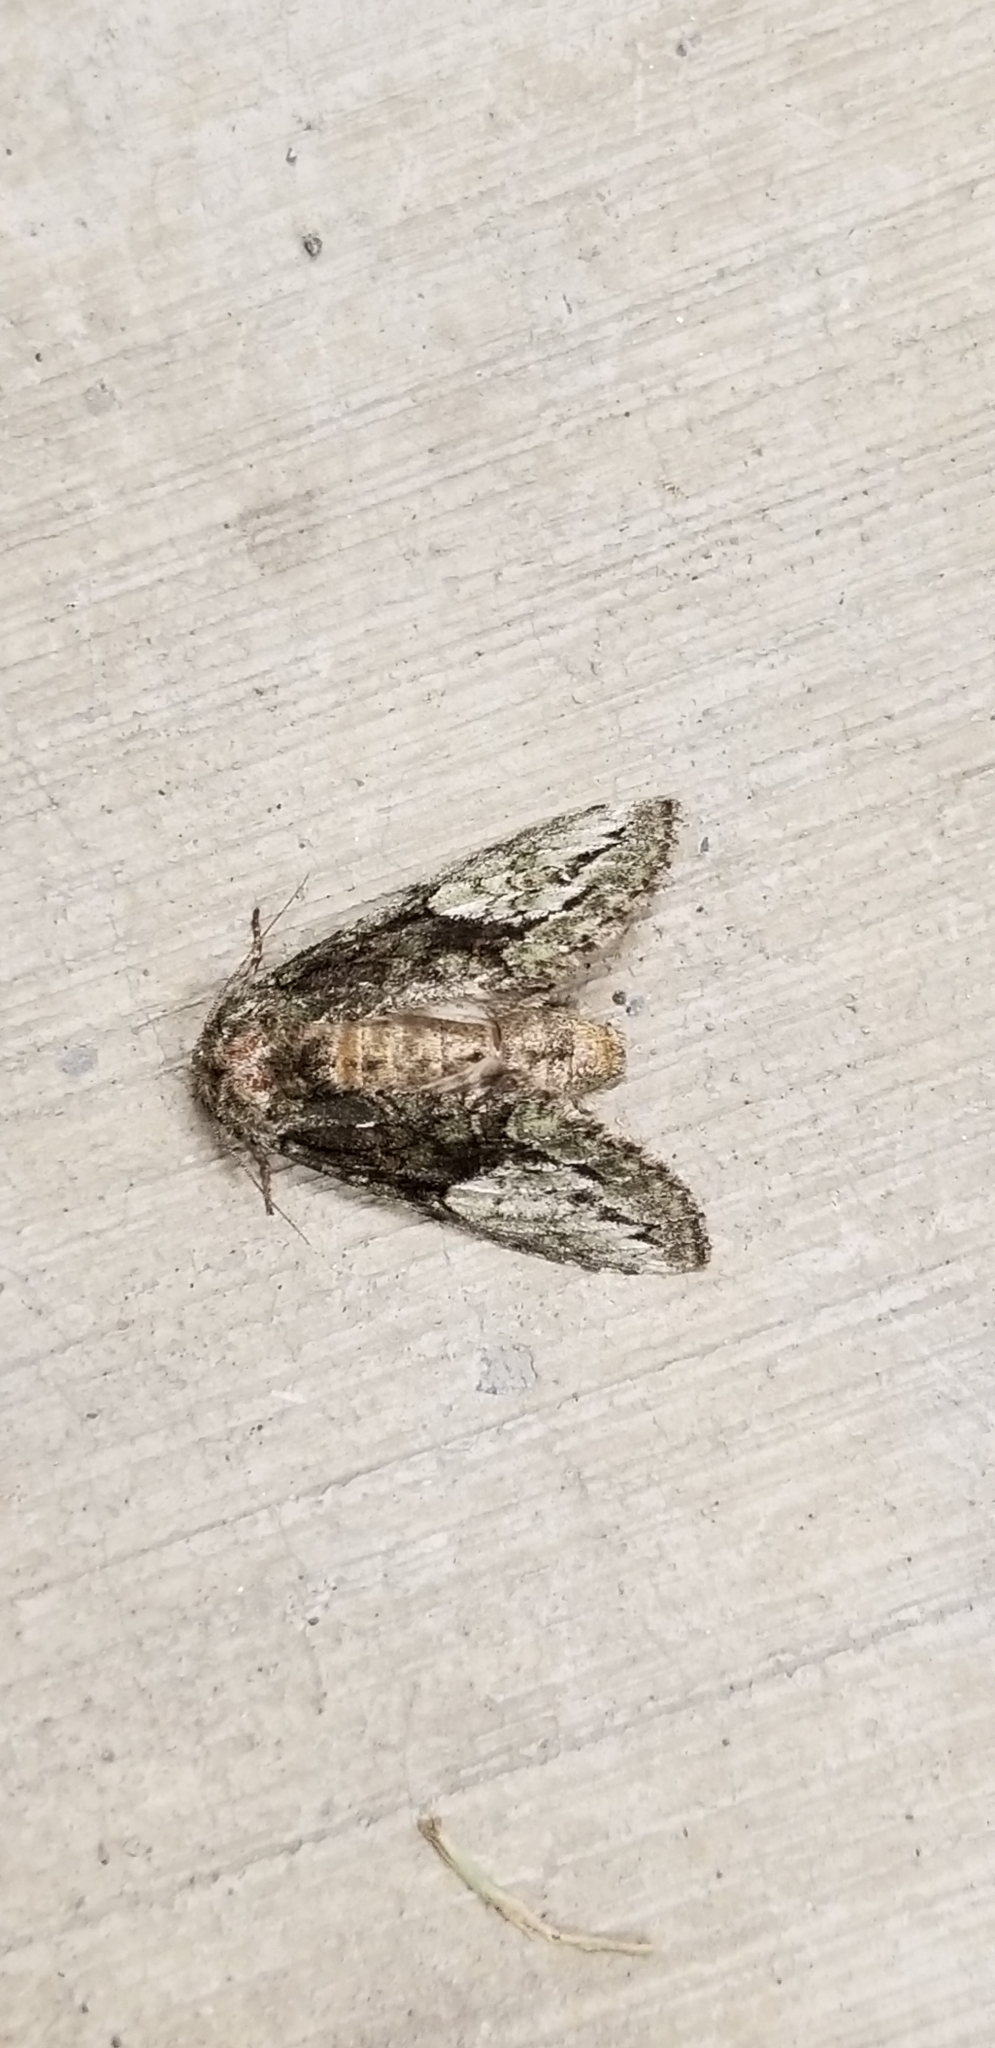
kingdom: Animalia
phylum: Arthropoda
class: Insecta
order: Lepidoptera
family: Notodontidae
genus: Heterocampa
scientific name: Heterocampa
